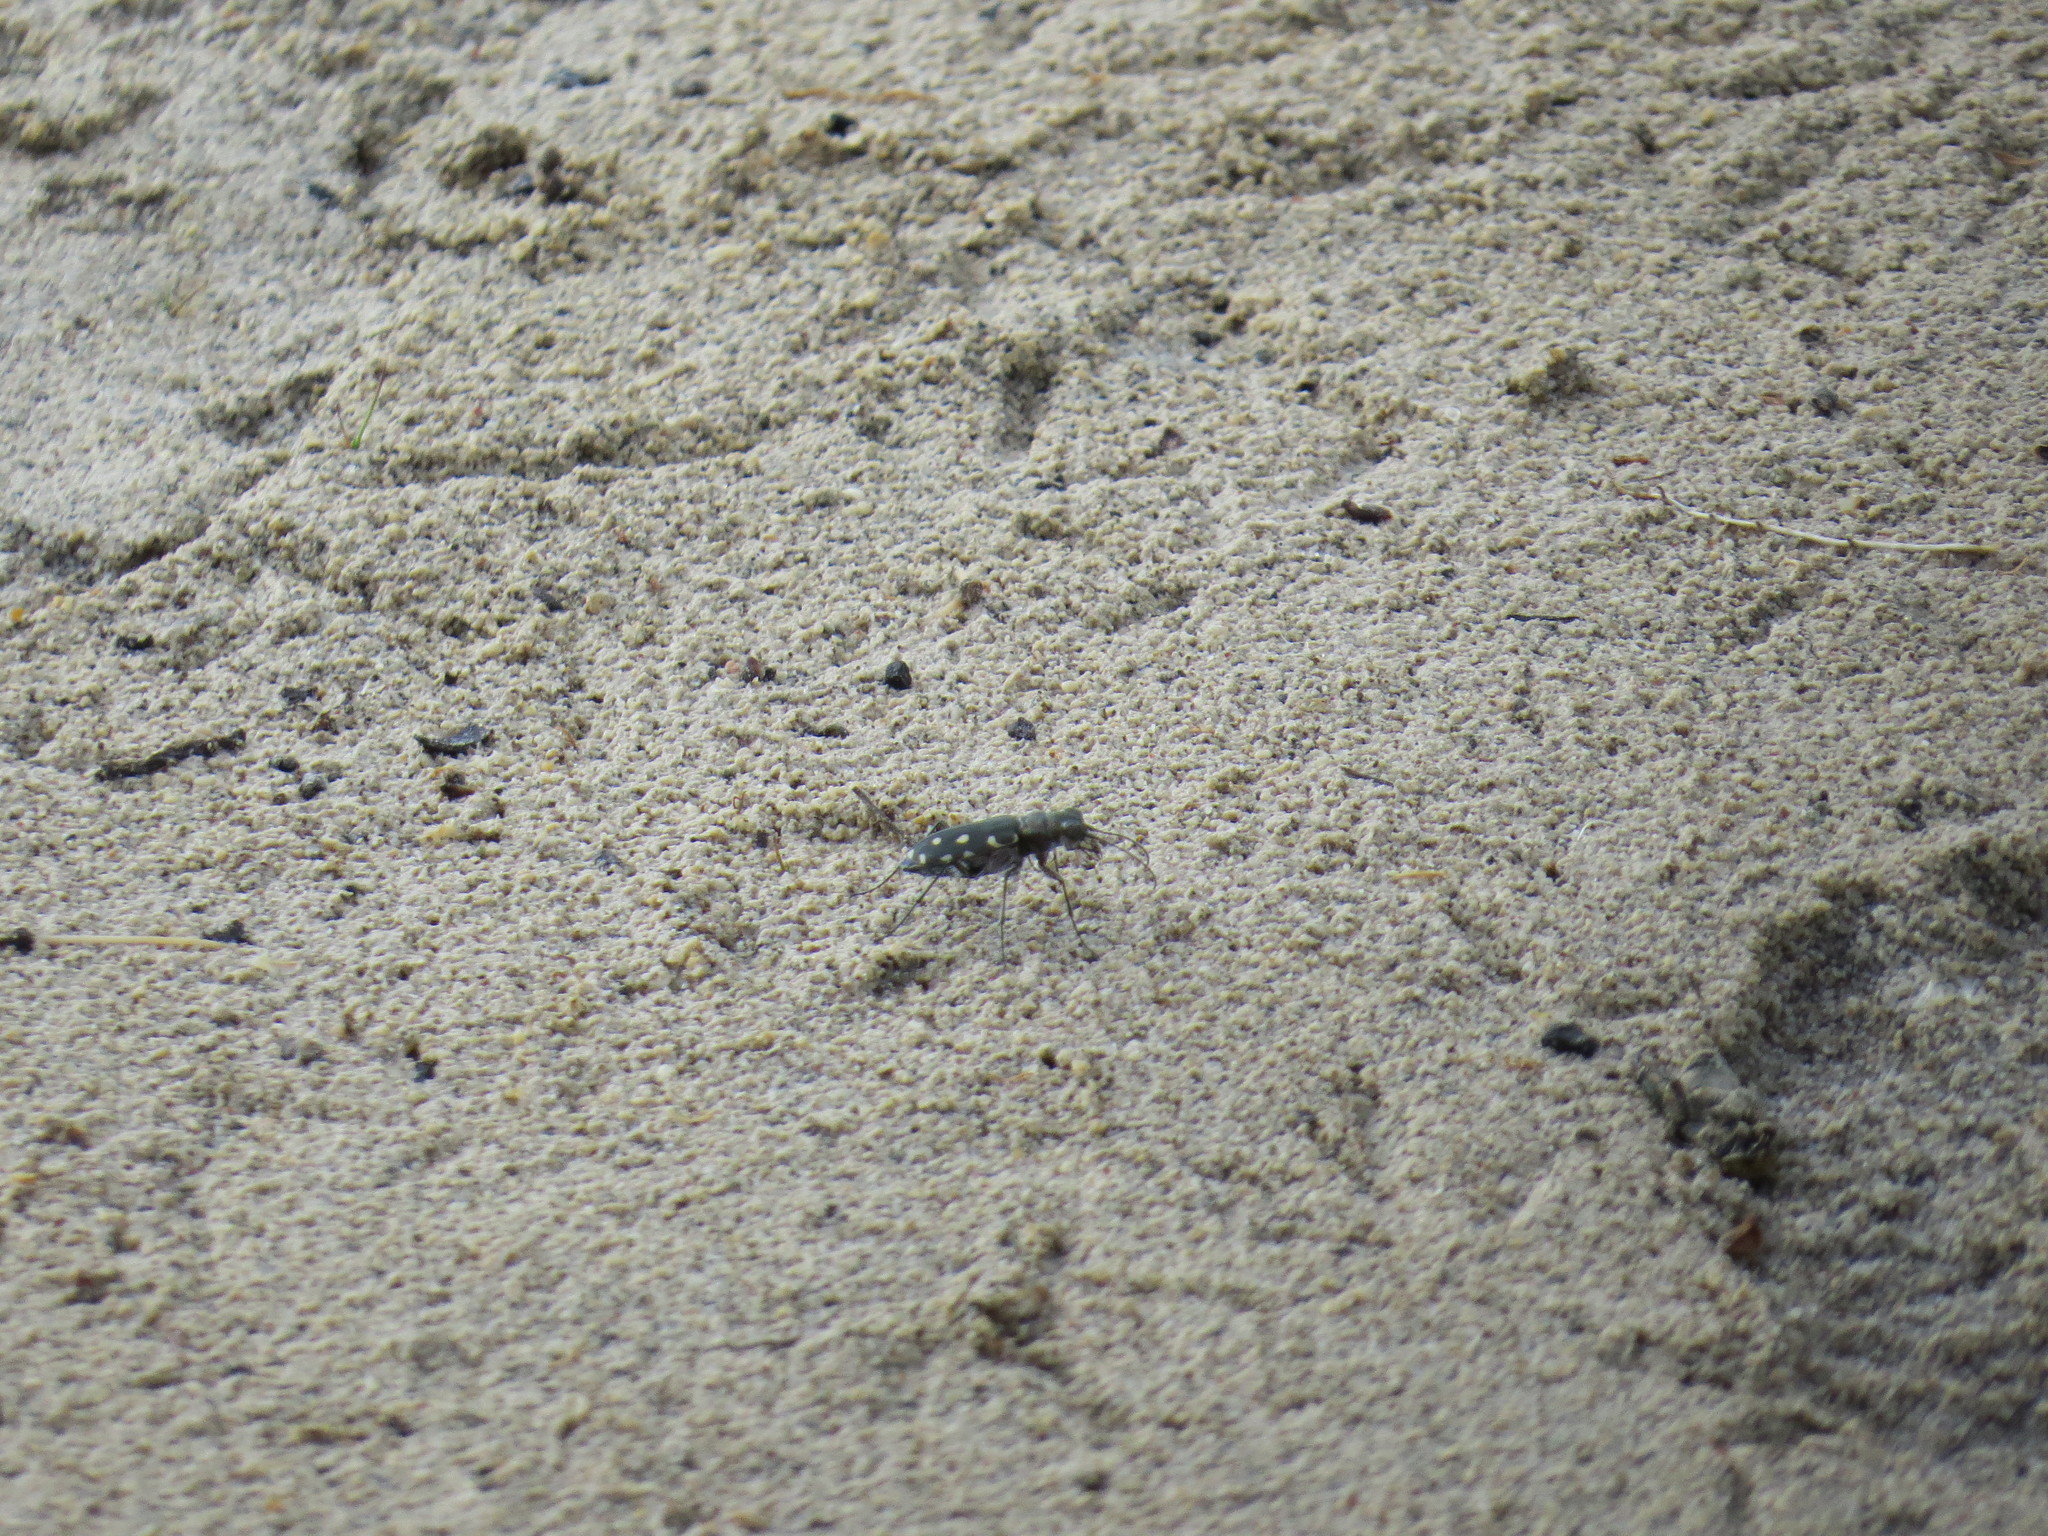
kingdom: Animalia
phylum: Arthropoda
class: Insecta
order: Coleoptera
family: Carabidae
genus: Cicindela
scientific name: Cicindela littoralis
